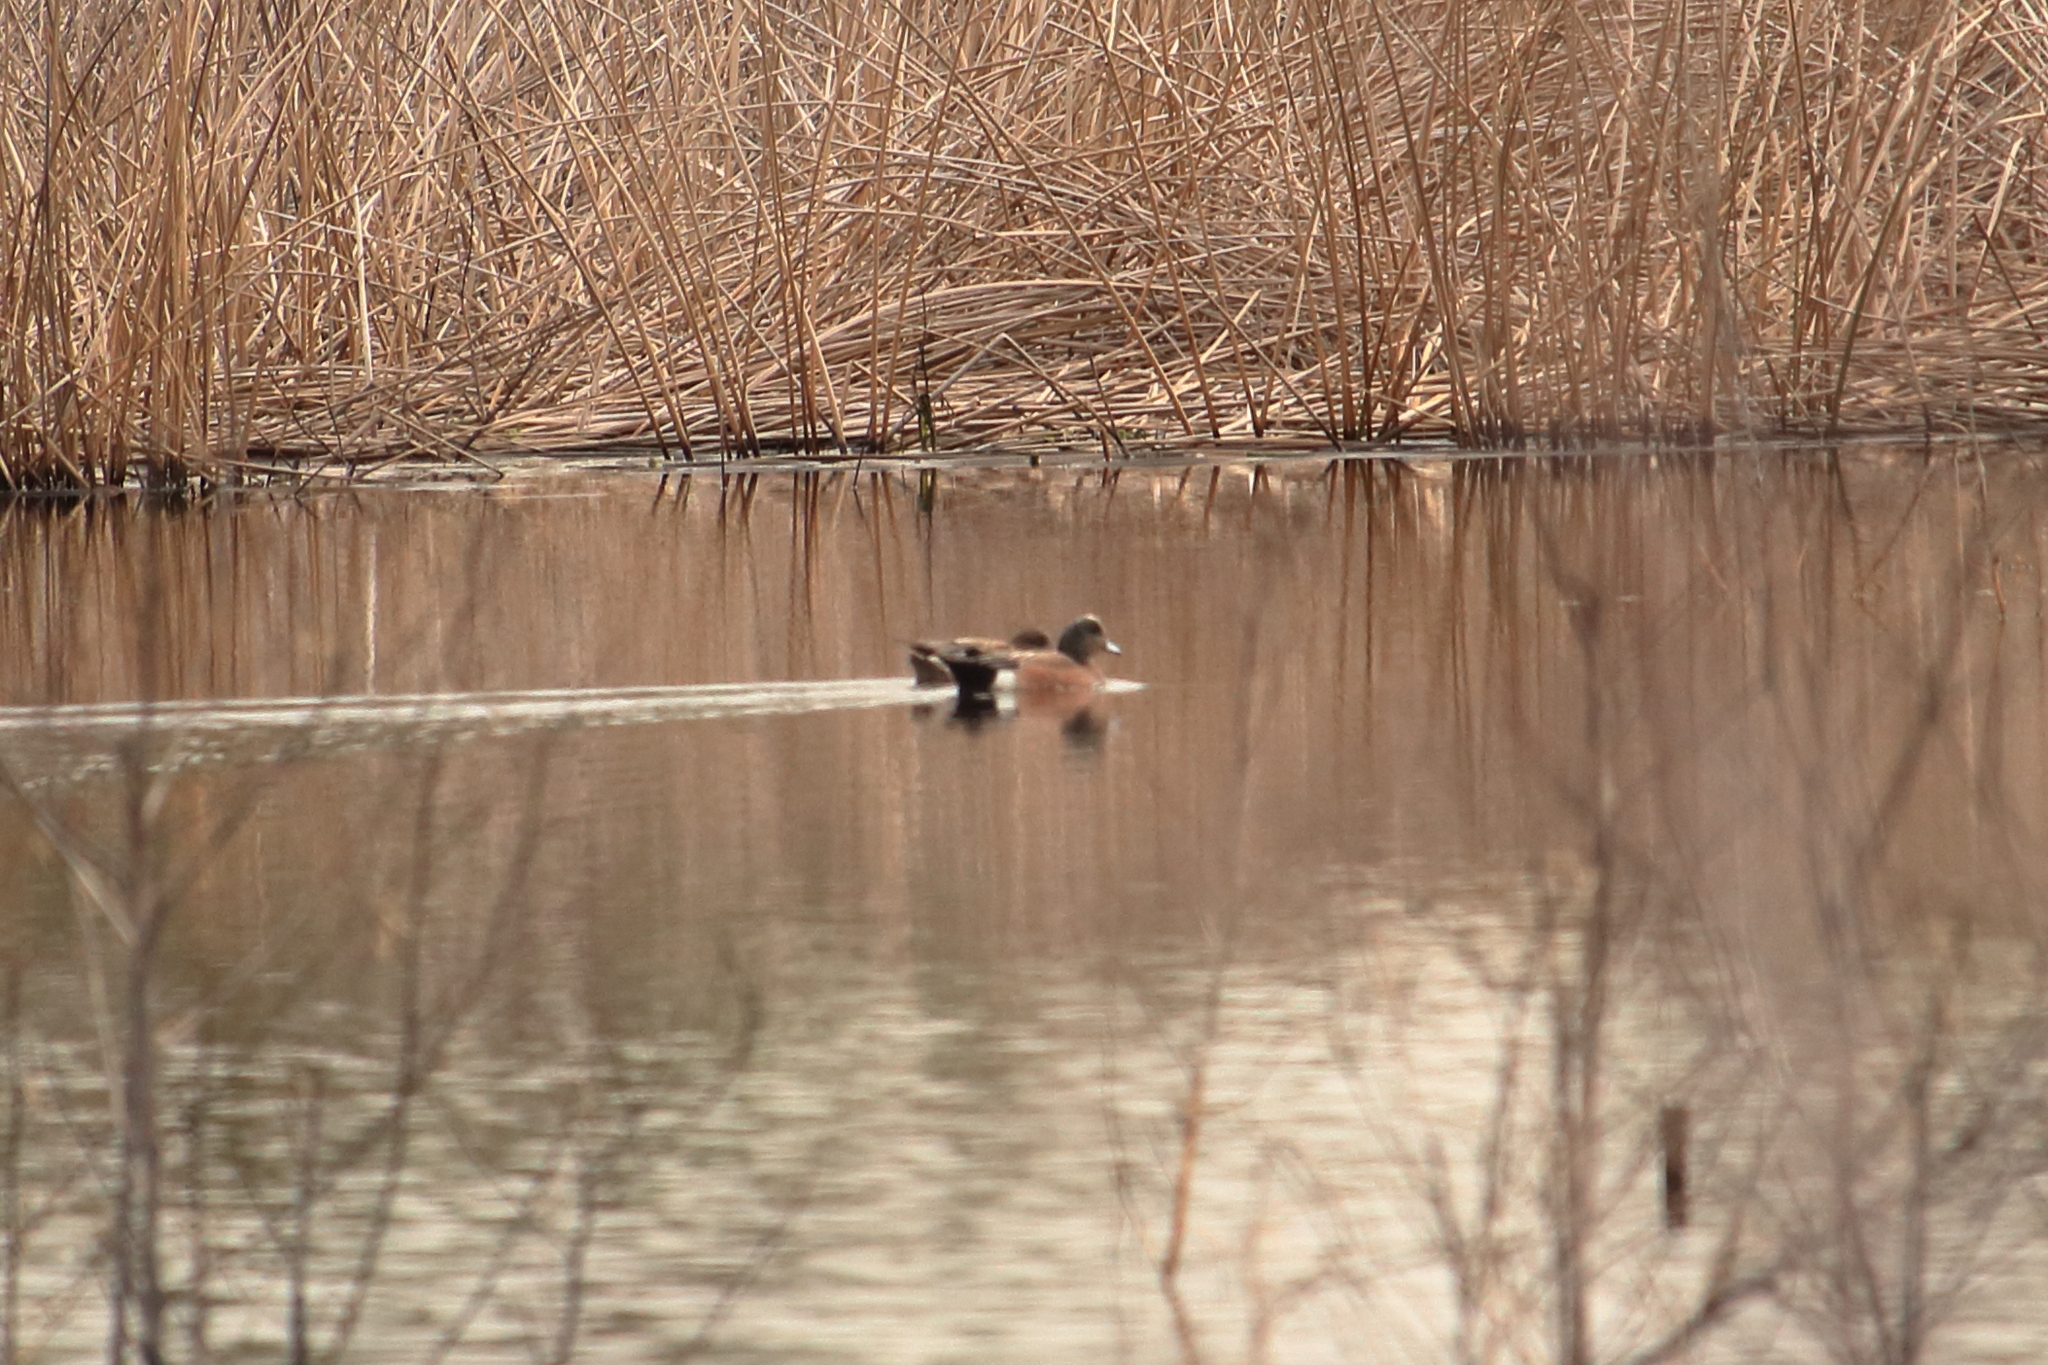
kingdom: Animalia
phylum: Chordata
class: Aves
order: Anseriformes
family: Anatidae
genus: Mareca
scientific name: Mareca americana
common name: American wigeon
